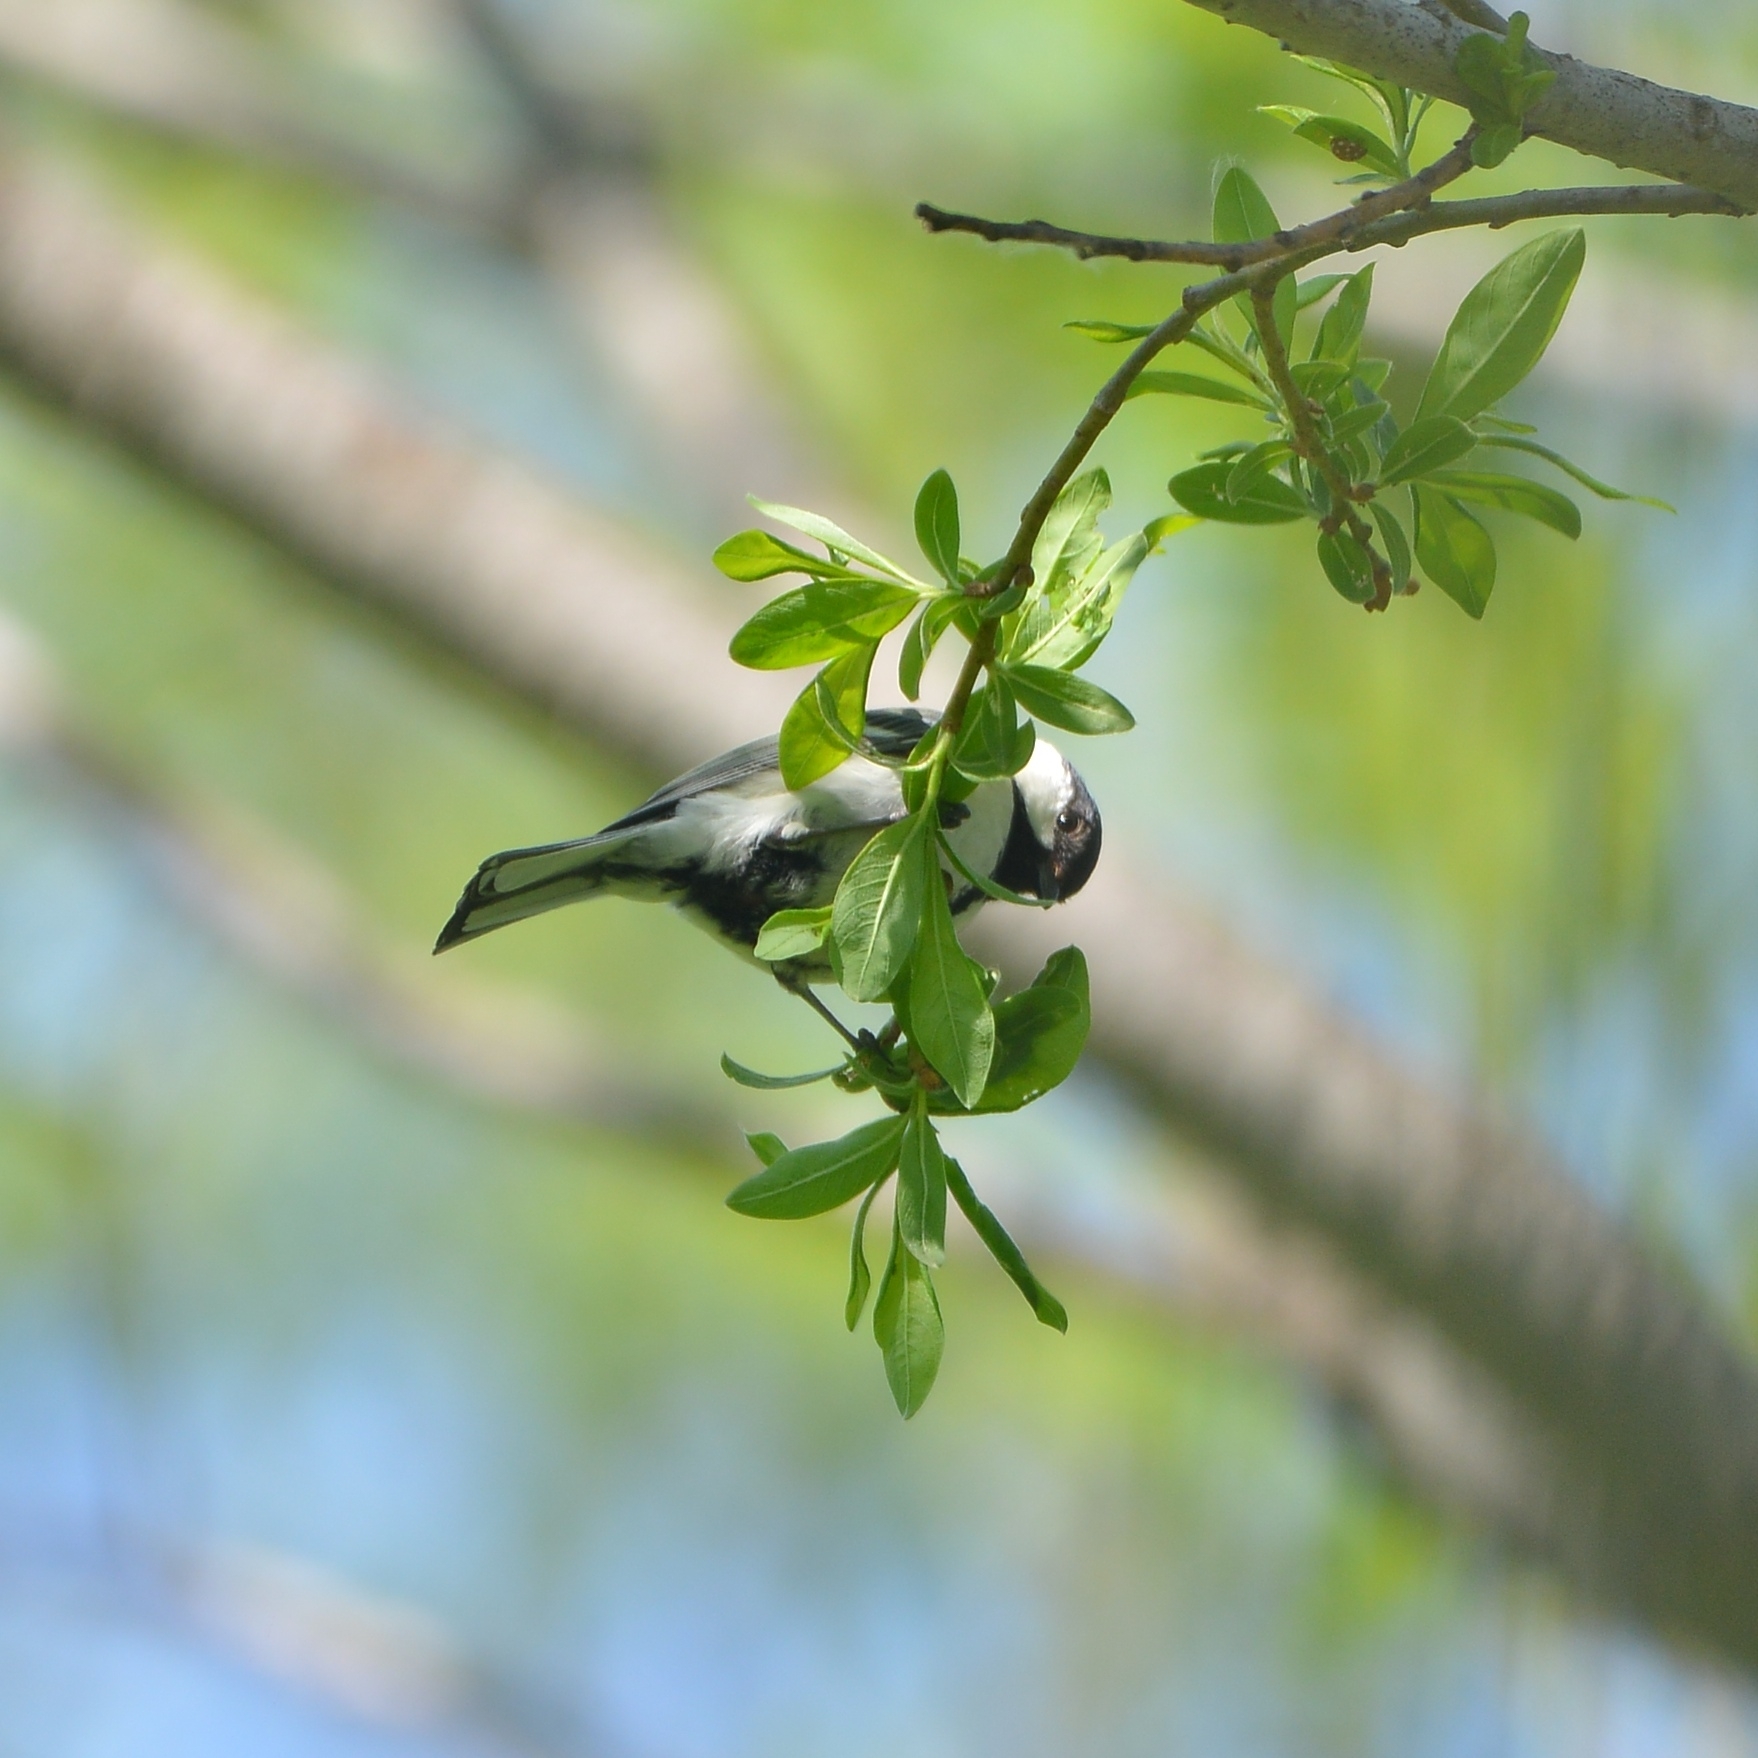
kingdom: Animalia
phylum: Chordata
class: Aves
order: Passeriformes
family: Paridae
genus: Parus
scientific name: Parus minor
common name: Japanese tit
